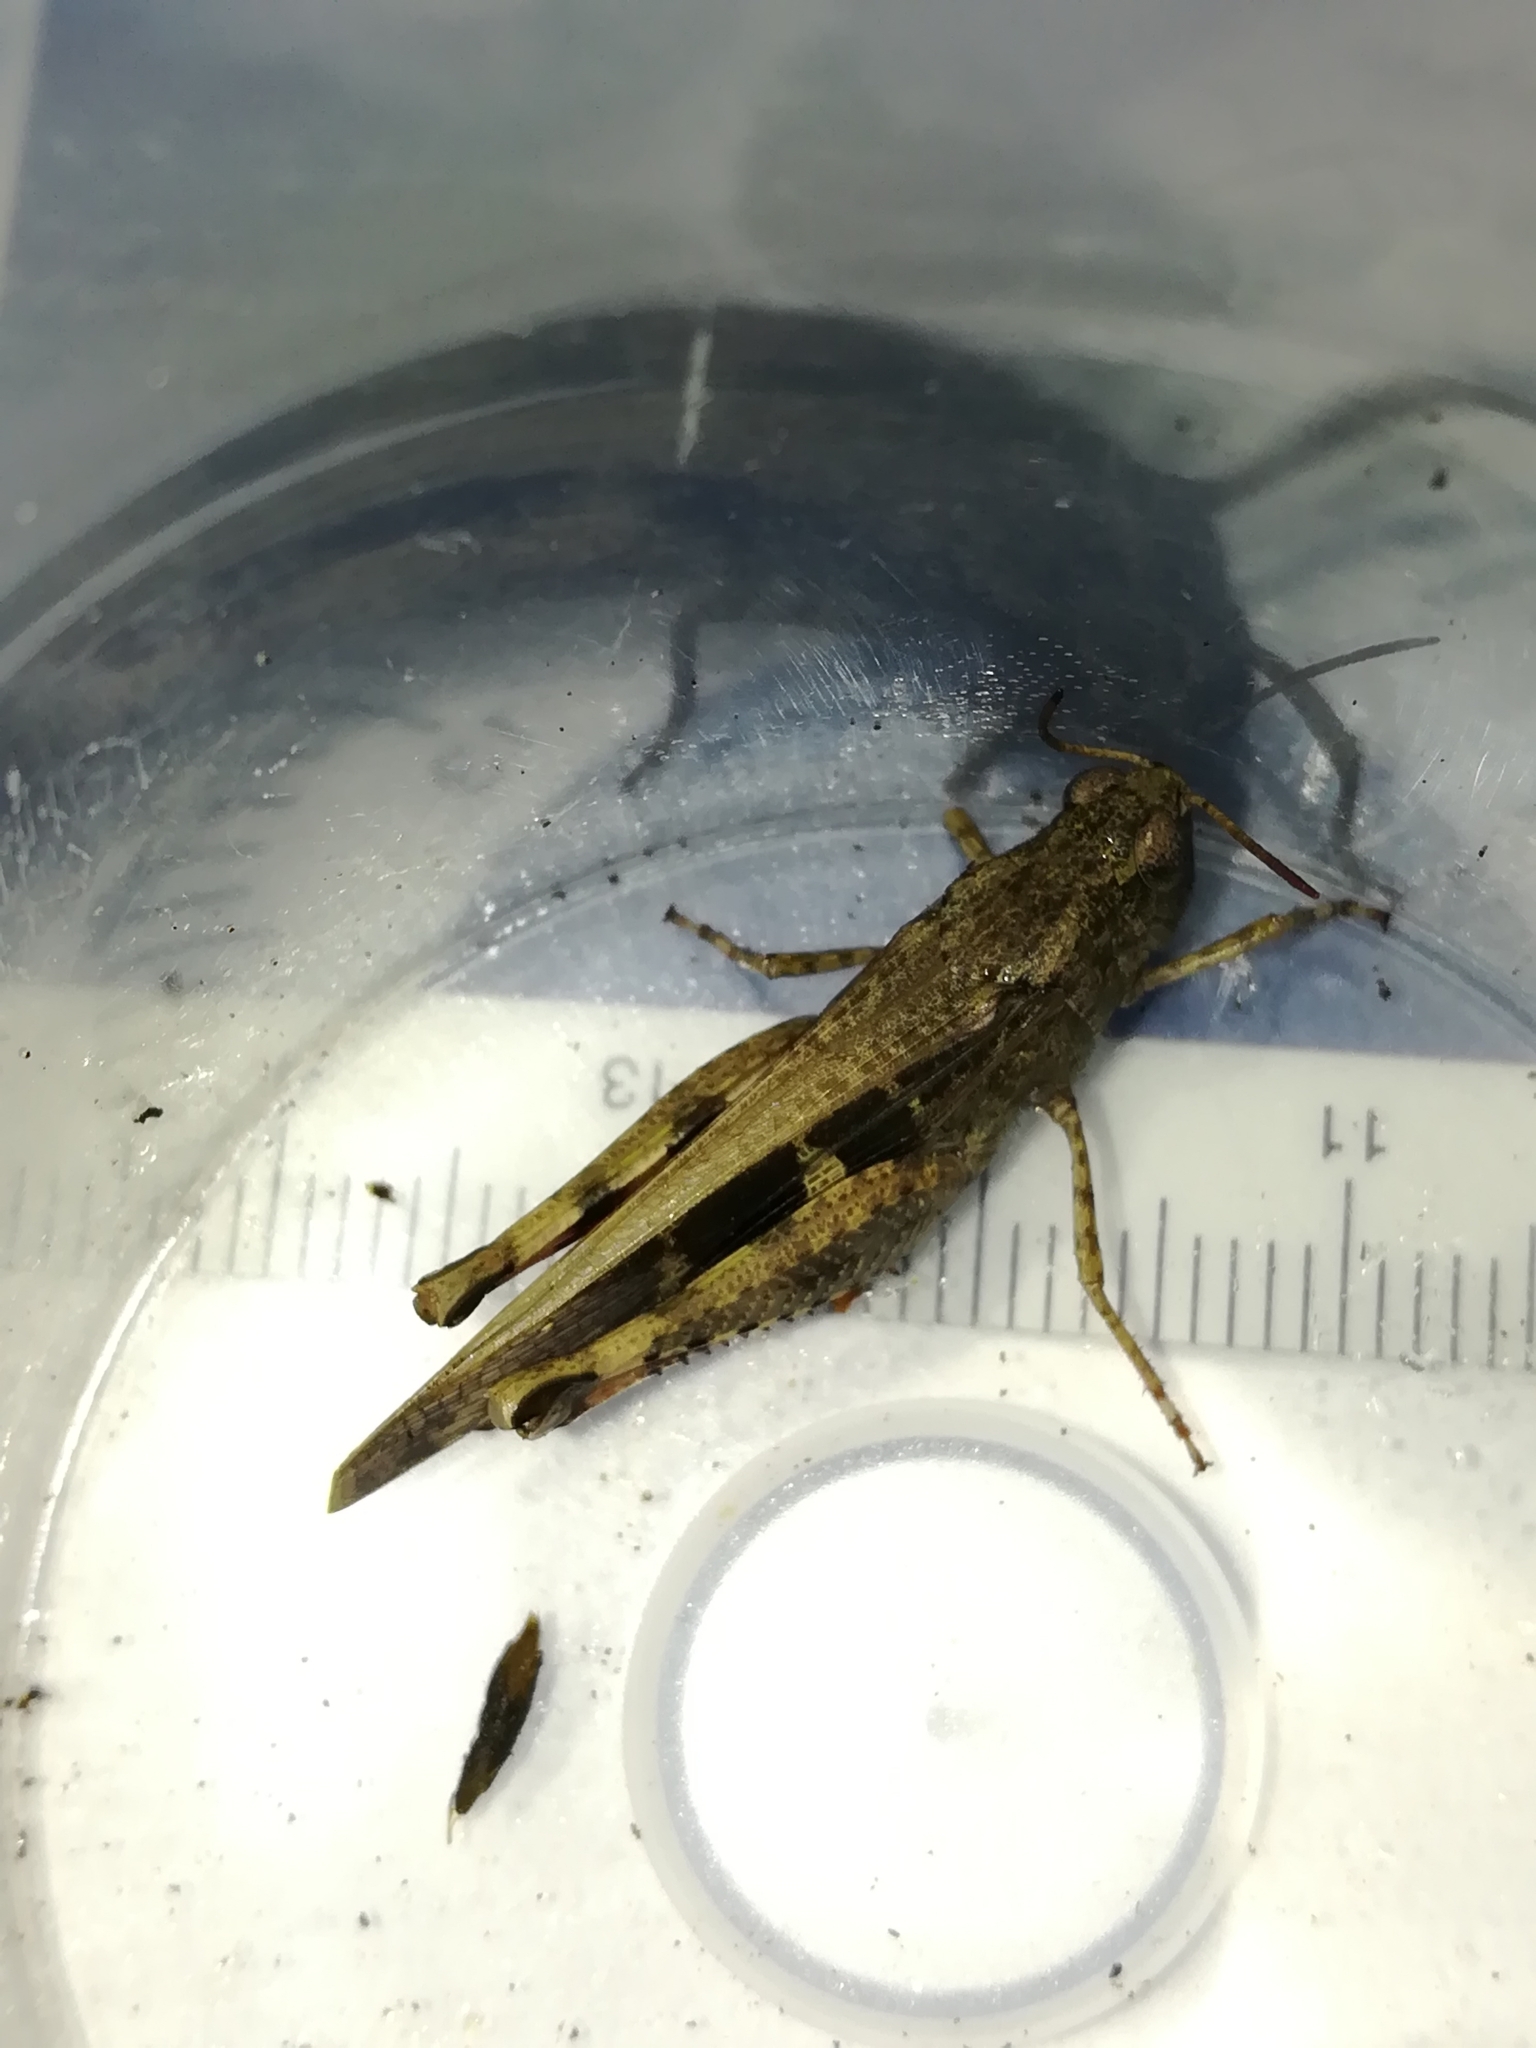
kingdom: Animalia
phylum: Arthropoda
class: Insecta
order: Orthoptera
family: Acrididae
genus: Aiolopus
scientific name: Aiolopus strepens
